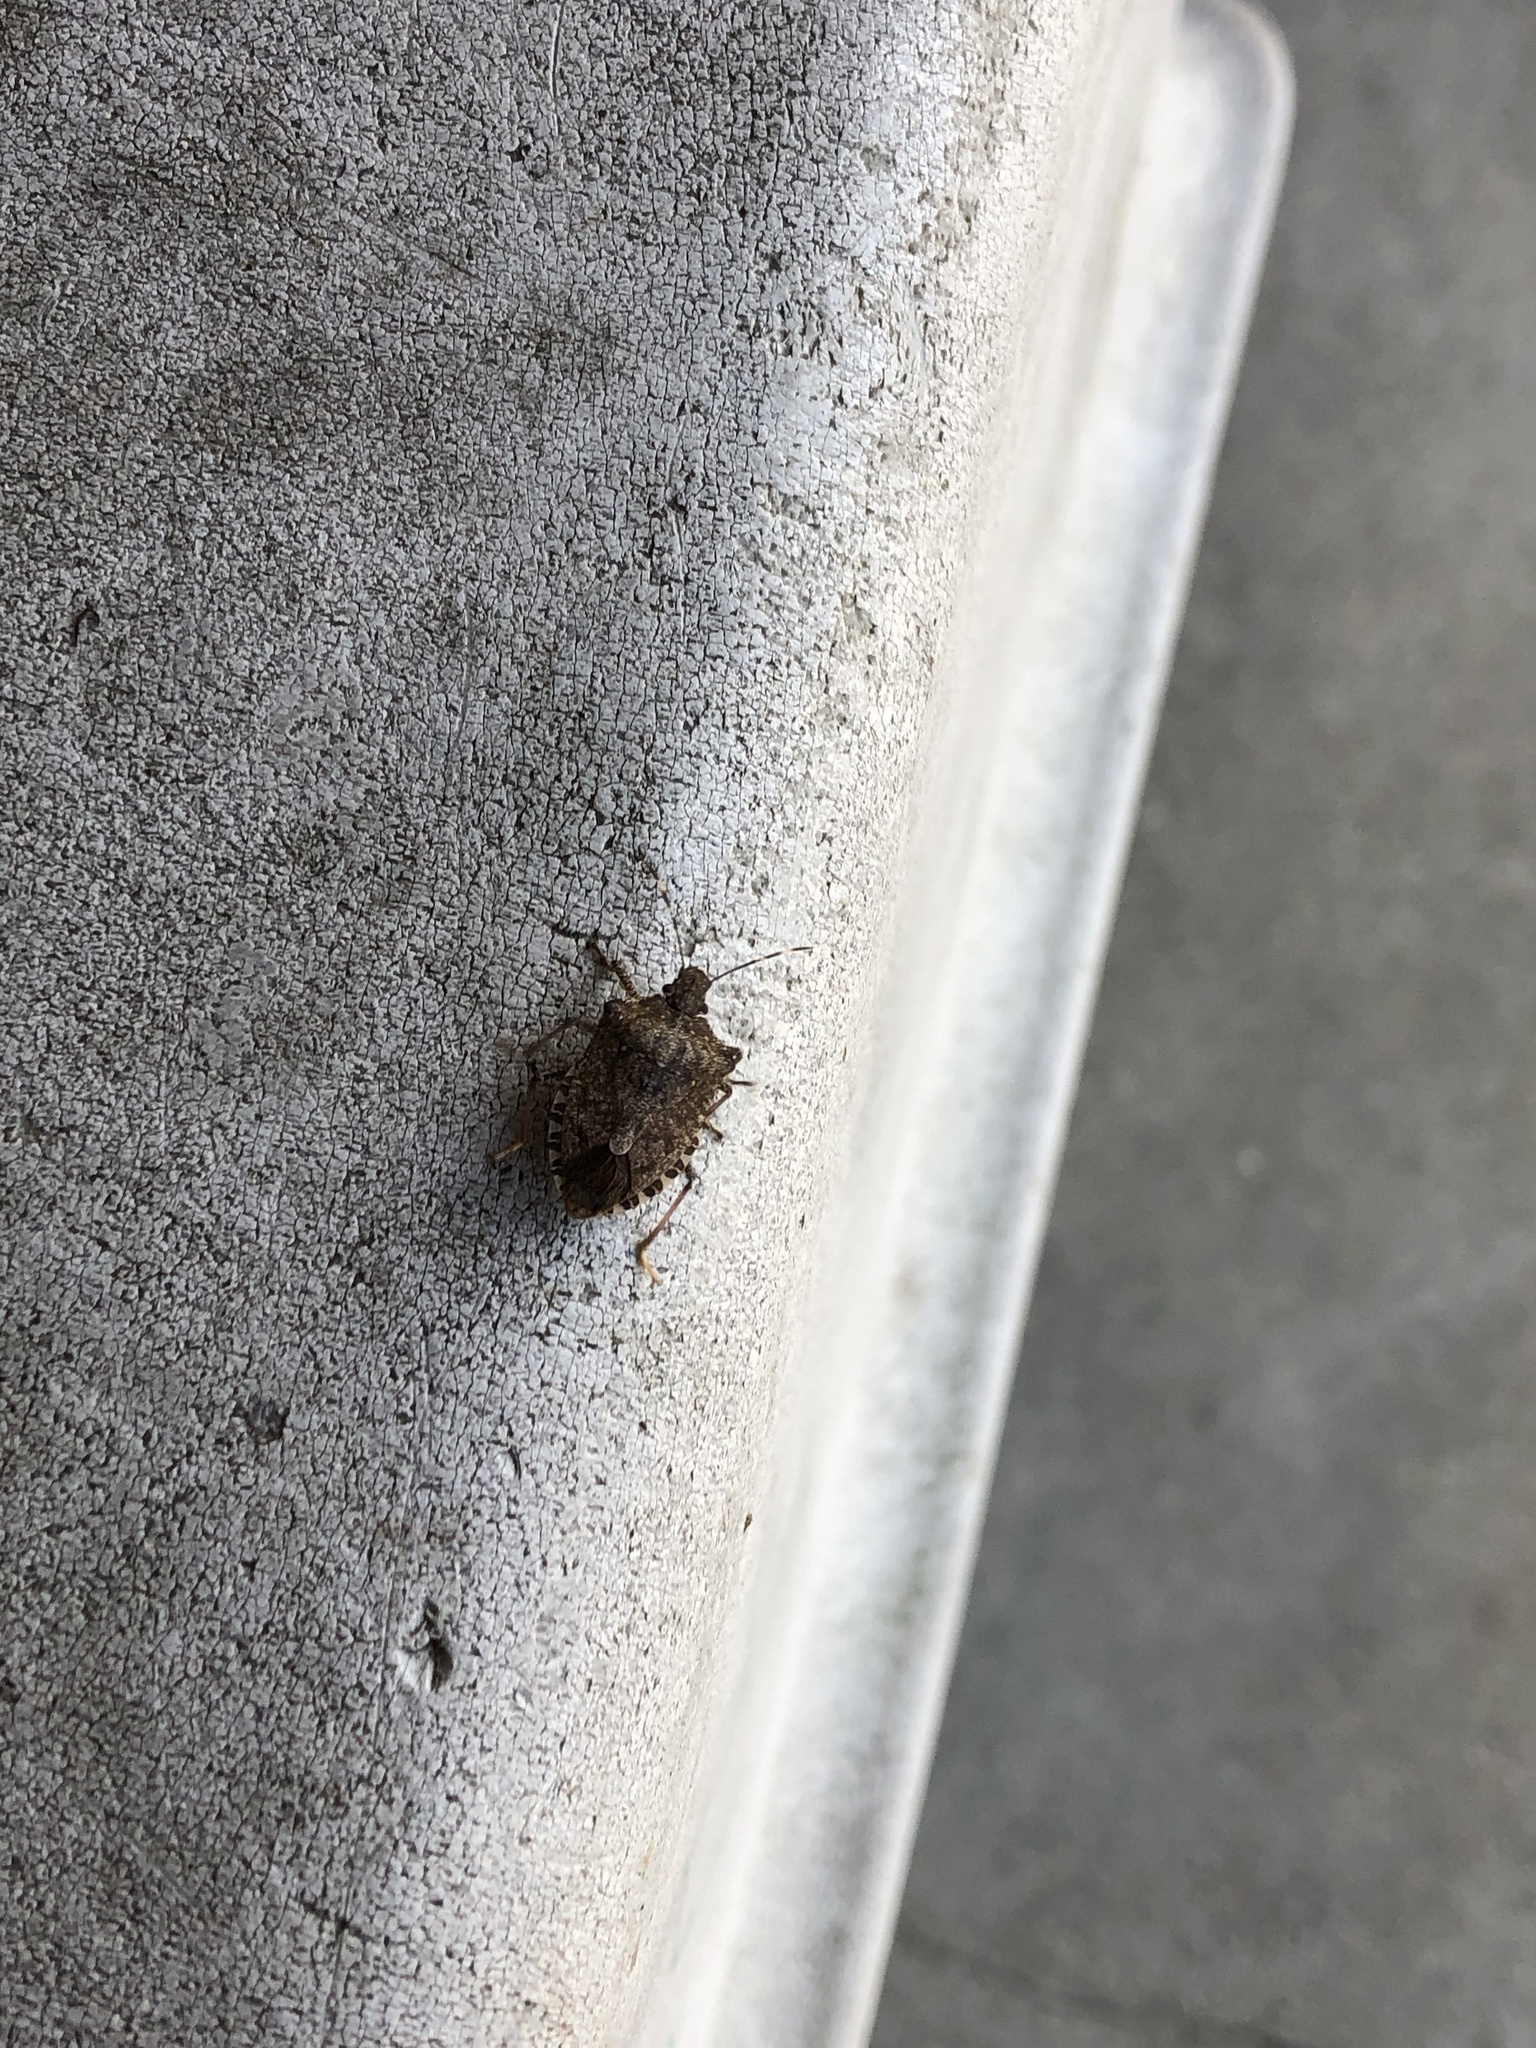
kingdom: Animalia
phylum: Arthropoda
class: Insecta
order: Hemiptera
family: Pentatomidae
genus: Halyomorpha
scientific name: Halyomorpha halys
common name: Brown marmorated stink bug
